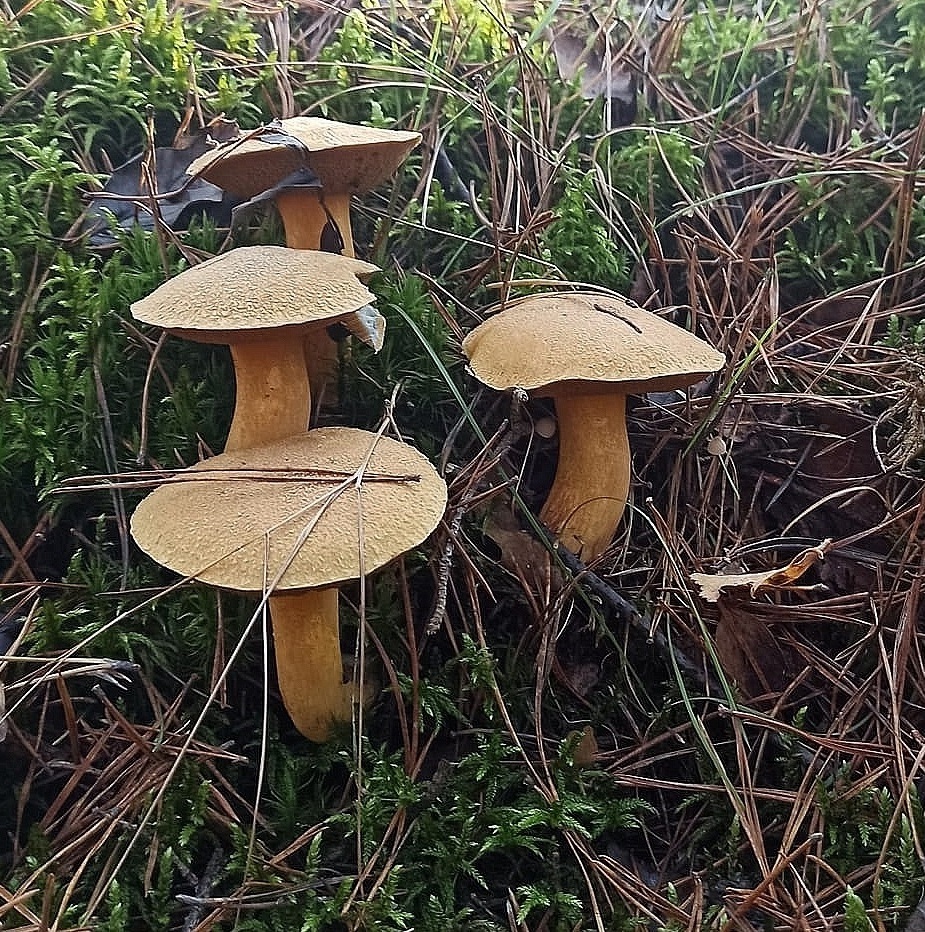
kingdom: Fungi
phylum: Basidiomycota
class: Agaricomycetes
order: Boletales
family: Suillaceae
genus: Suillus
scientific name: Suillus variegatus
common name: Velvet bolete
